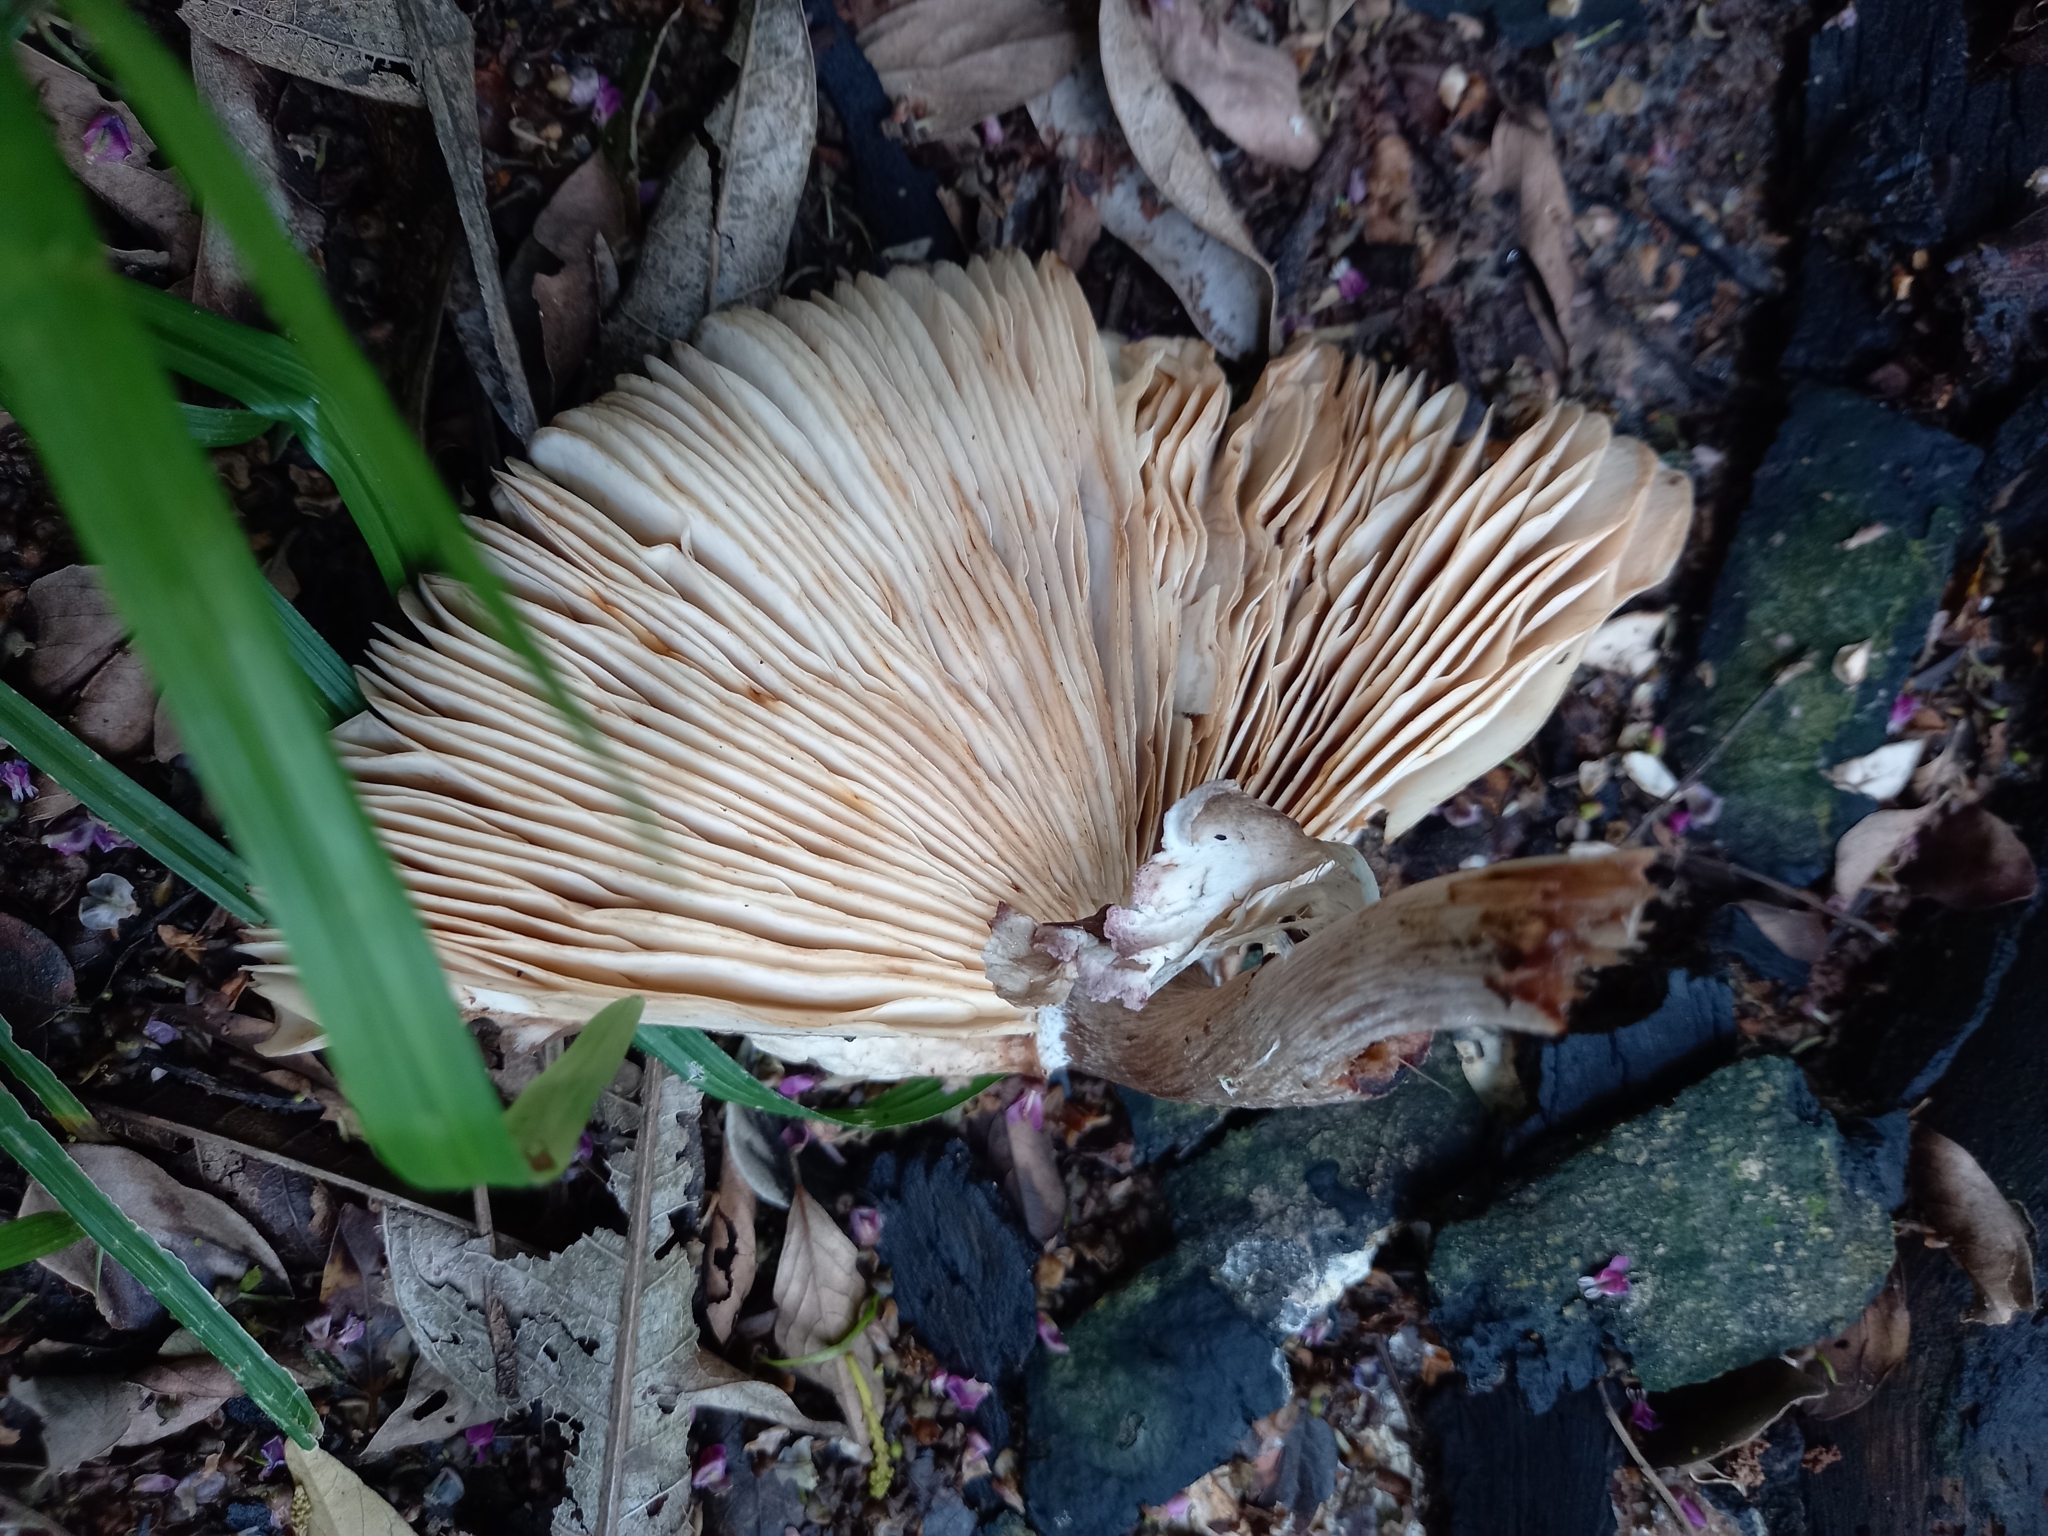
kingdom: Fungi
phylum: Basidiomycota
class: Agaricomycetes
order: Agaricales
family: Agaricaceae
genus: Leucoagaricus
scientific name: Leucoagaricus lilaceus
